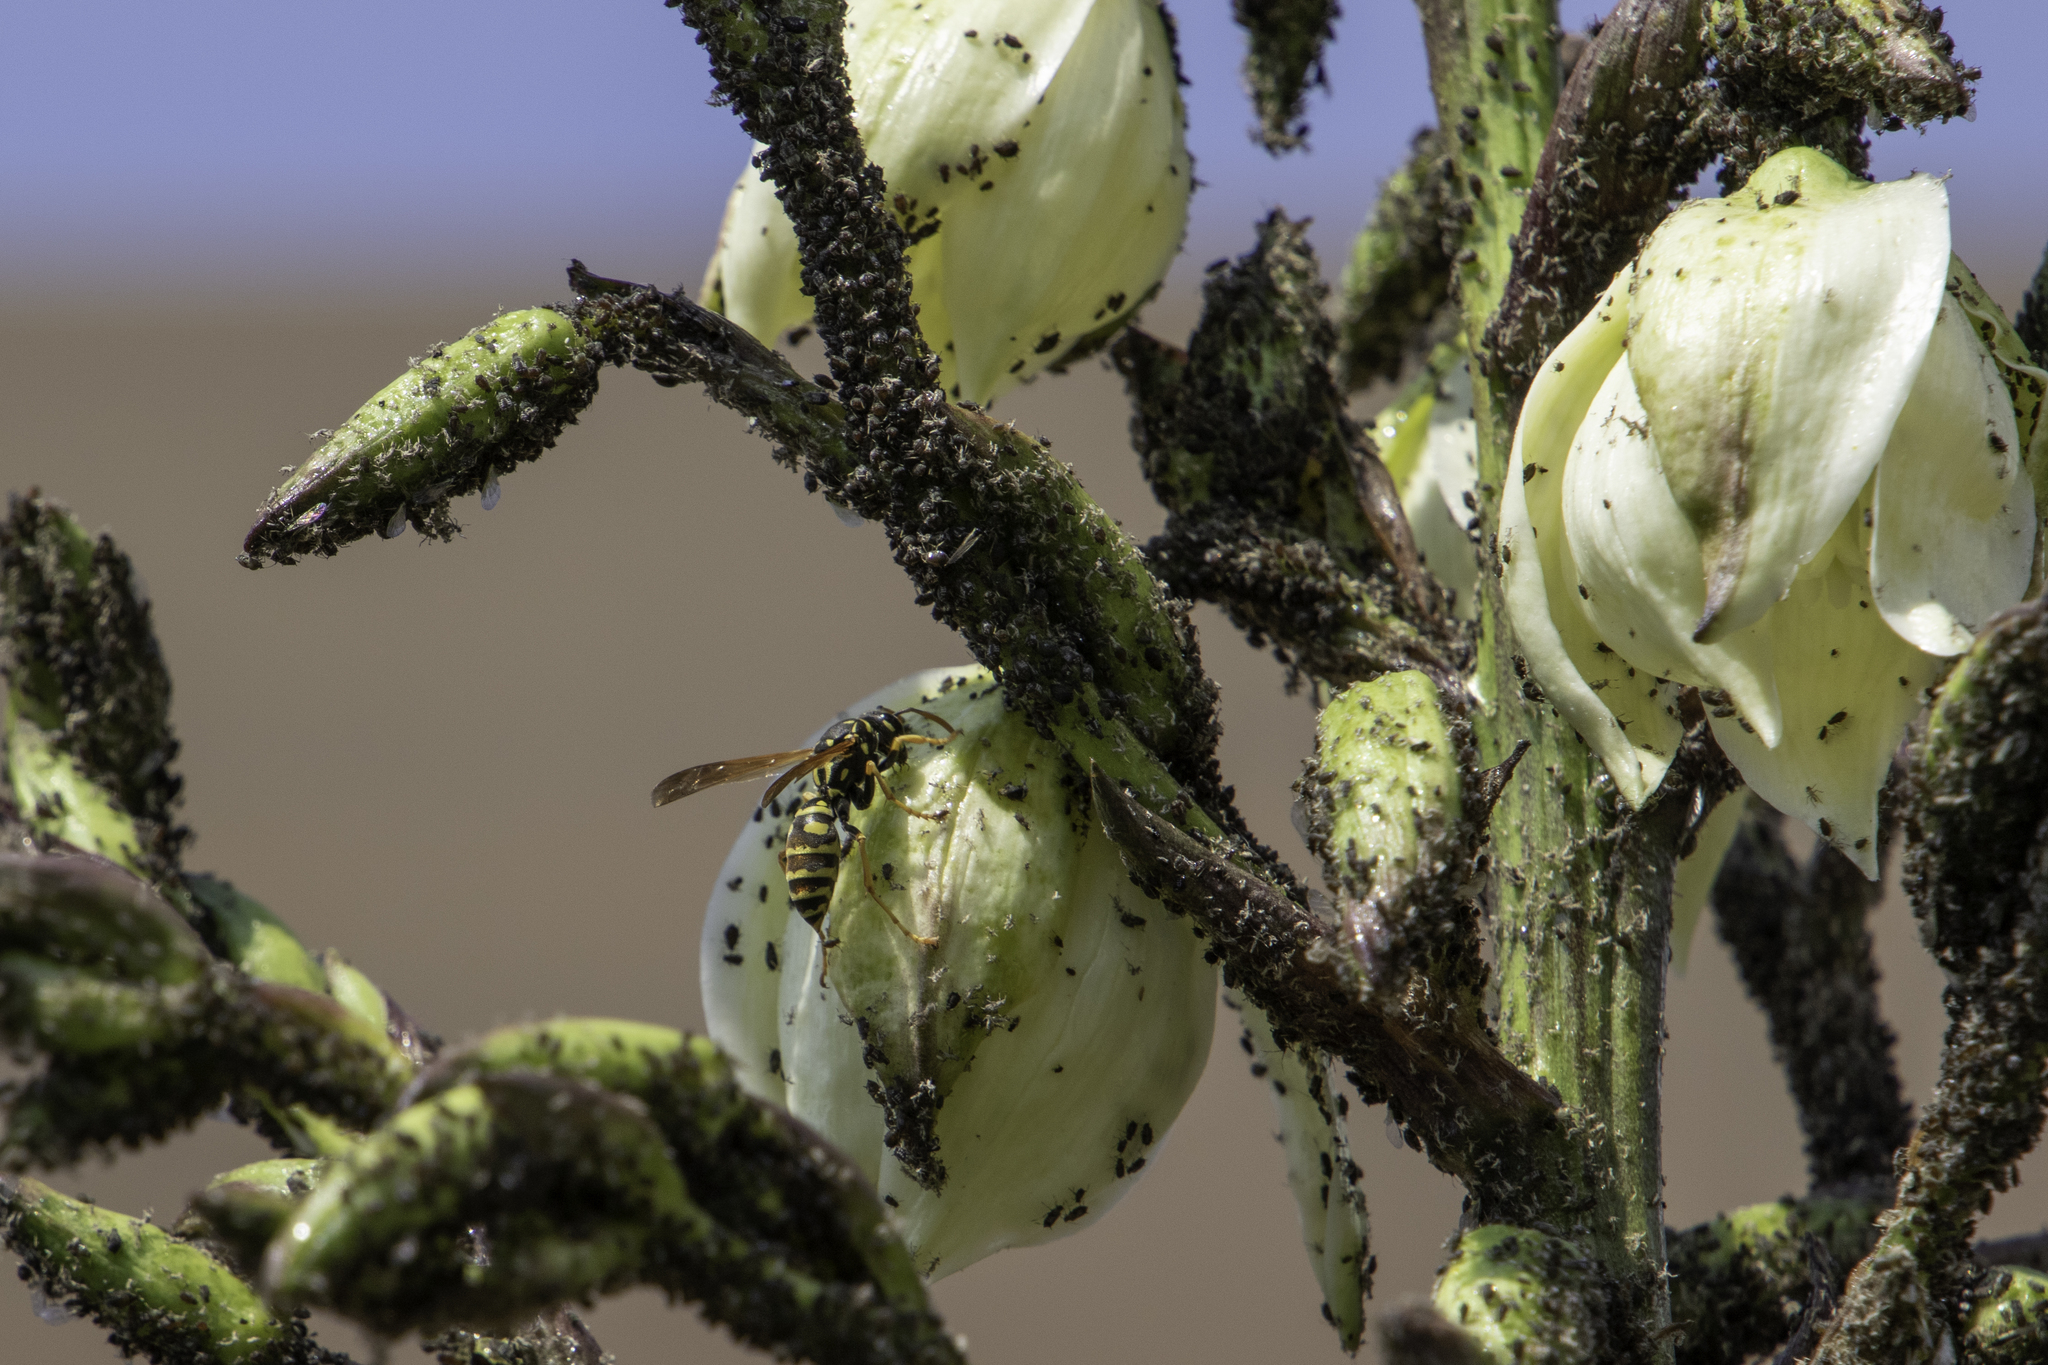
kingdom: Animalia
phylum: Arthropoda
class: Insecta
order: Hymenoptera
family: Eumenidae
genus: Polistes
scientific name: Polistes dominula
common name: Paper wasp
